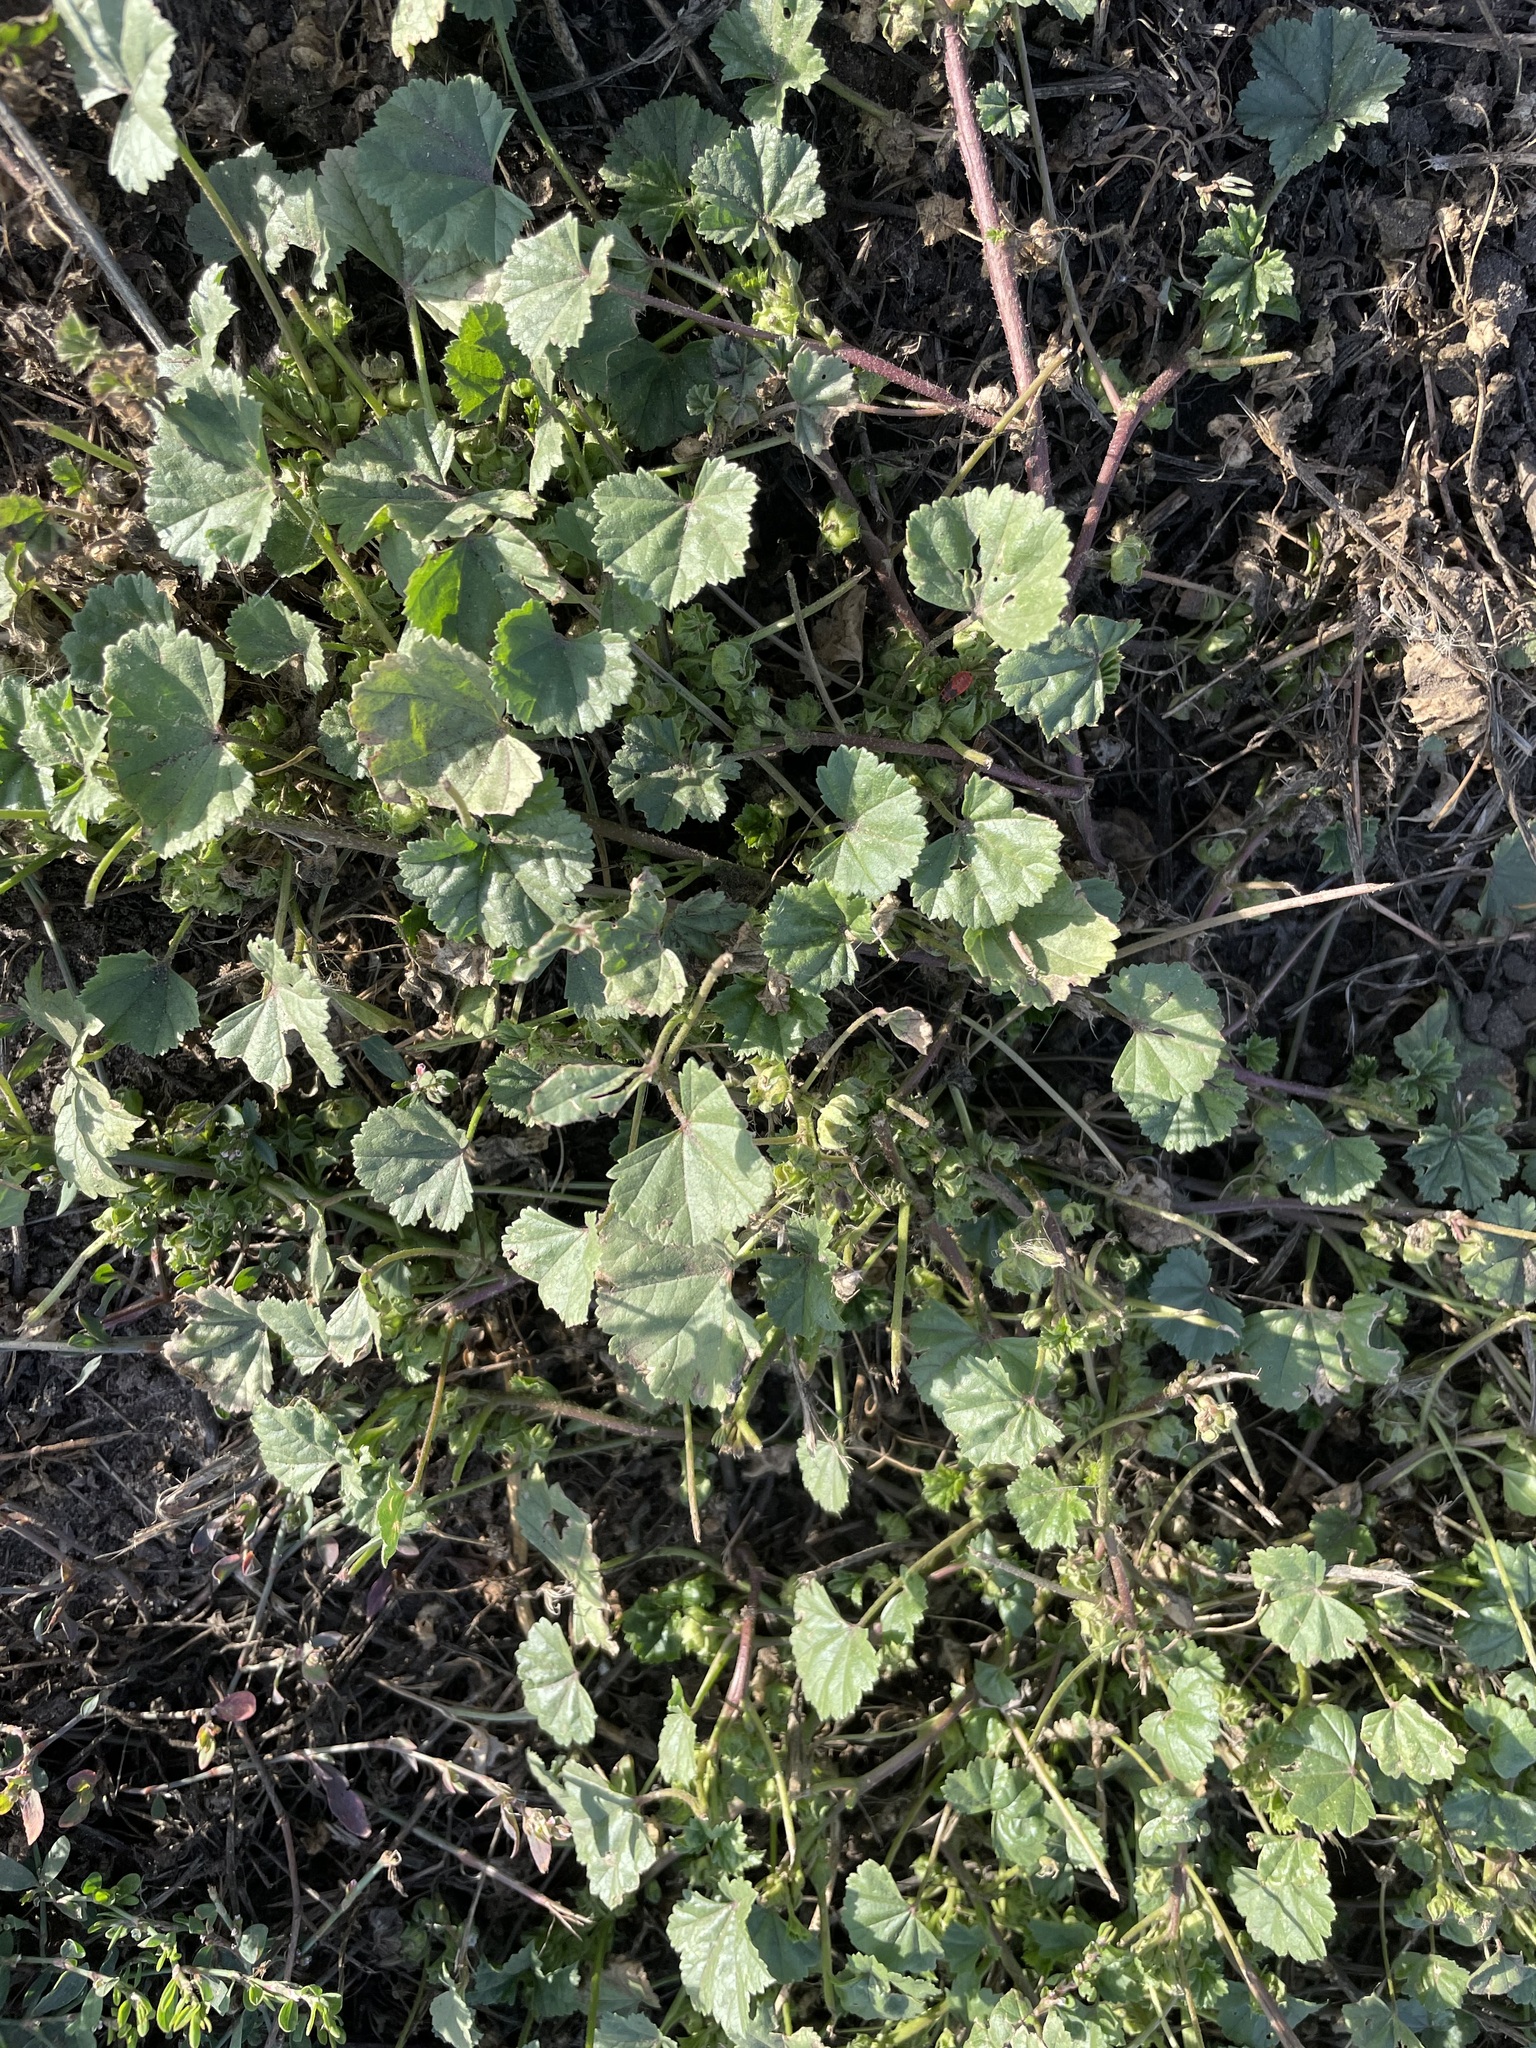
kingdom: Plantae
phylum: Tracheophyta
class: Magnoliopsida
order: Malvales
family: Malvaceae
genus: Malva
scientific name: Malva pusilla
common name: Small mallow
